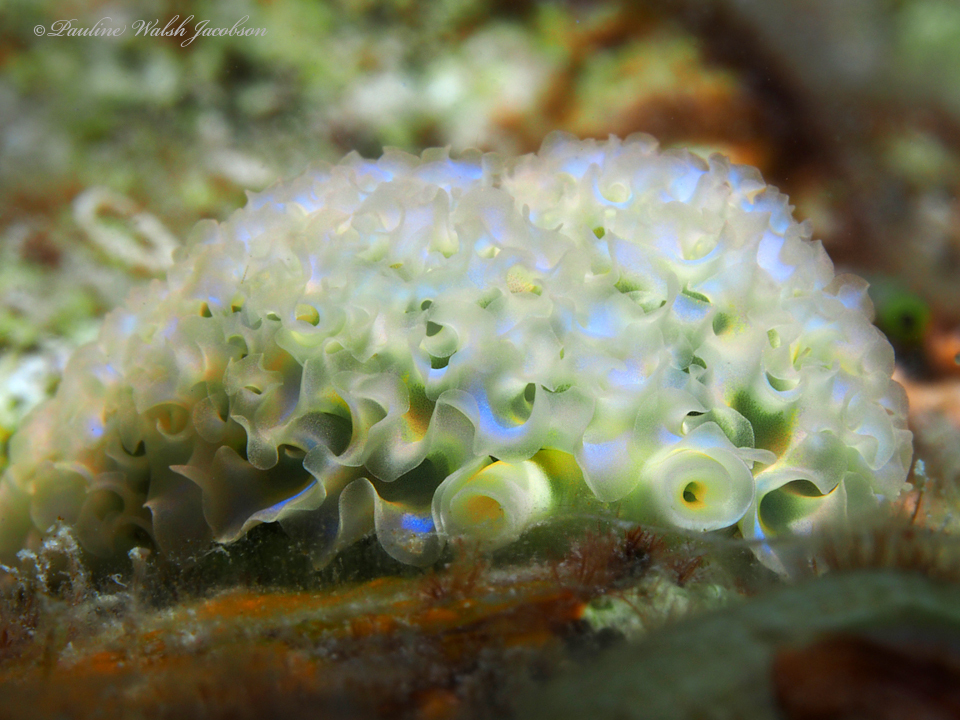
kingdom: Animalia
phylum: Mollusca
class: Gastropoda
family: Plakobranchidae
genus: Elysia
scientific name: Elysia crispata
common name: Lettuce slug
